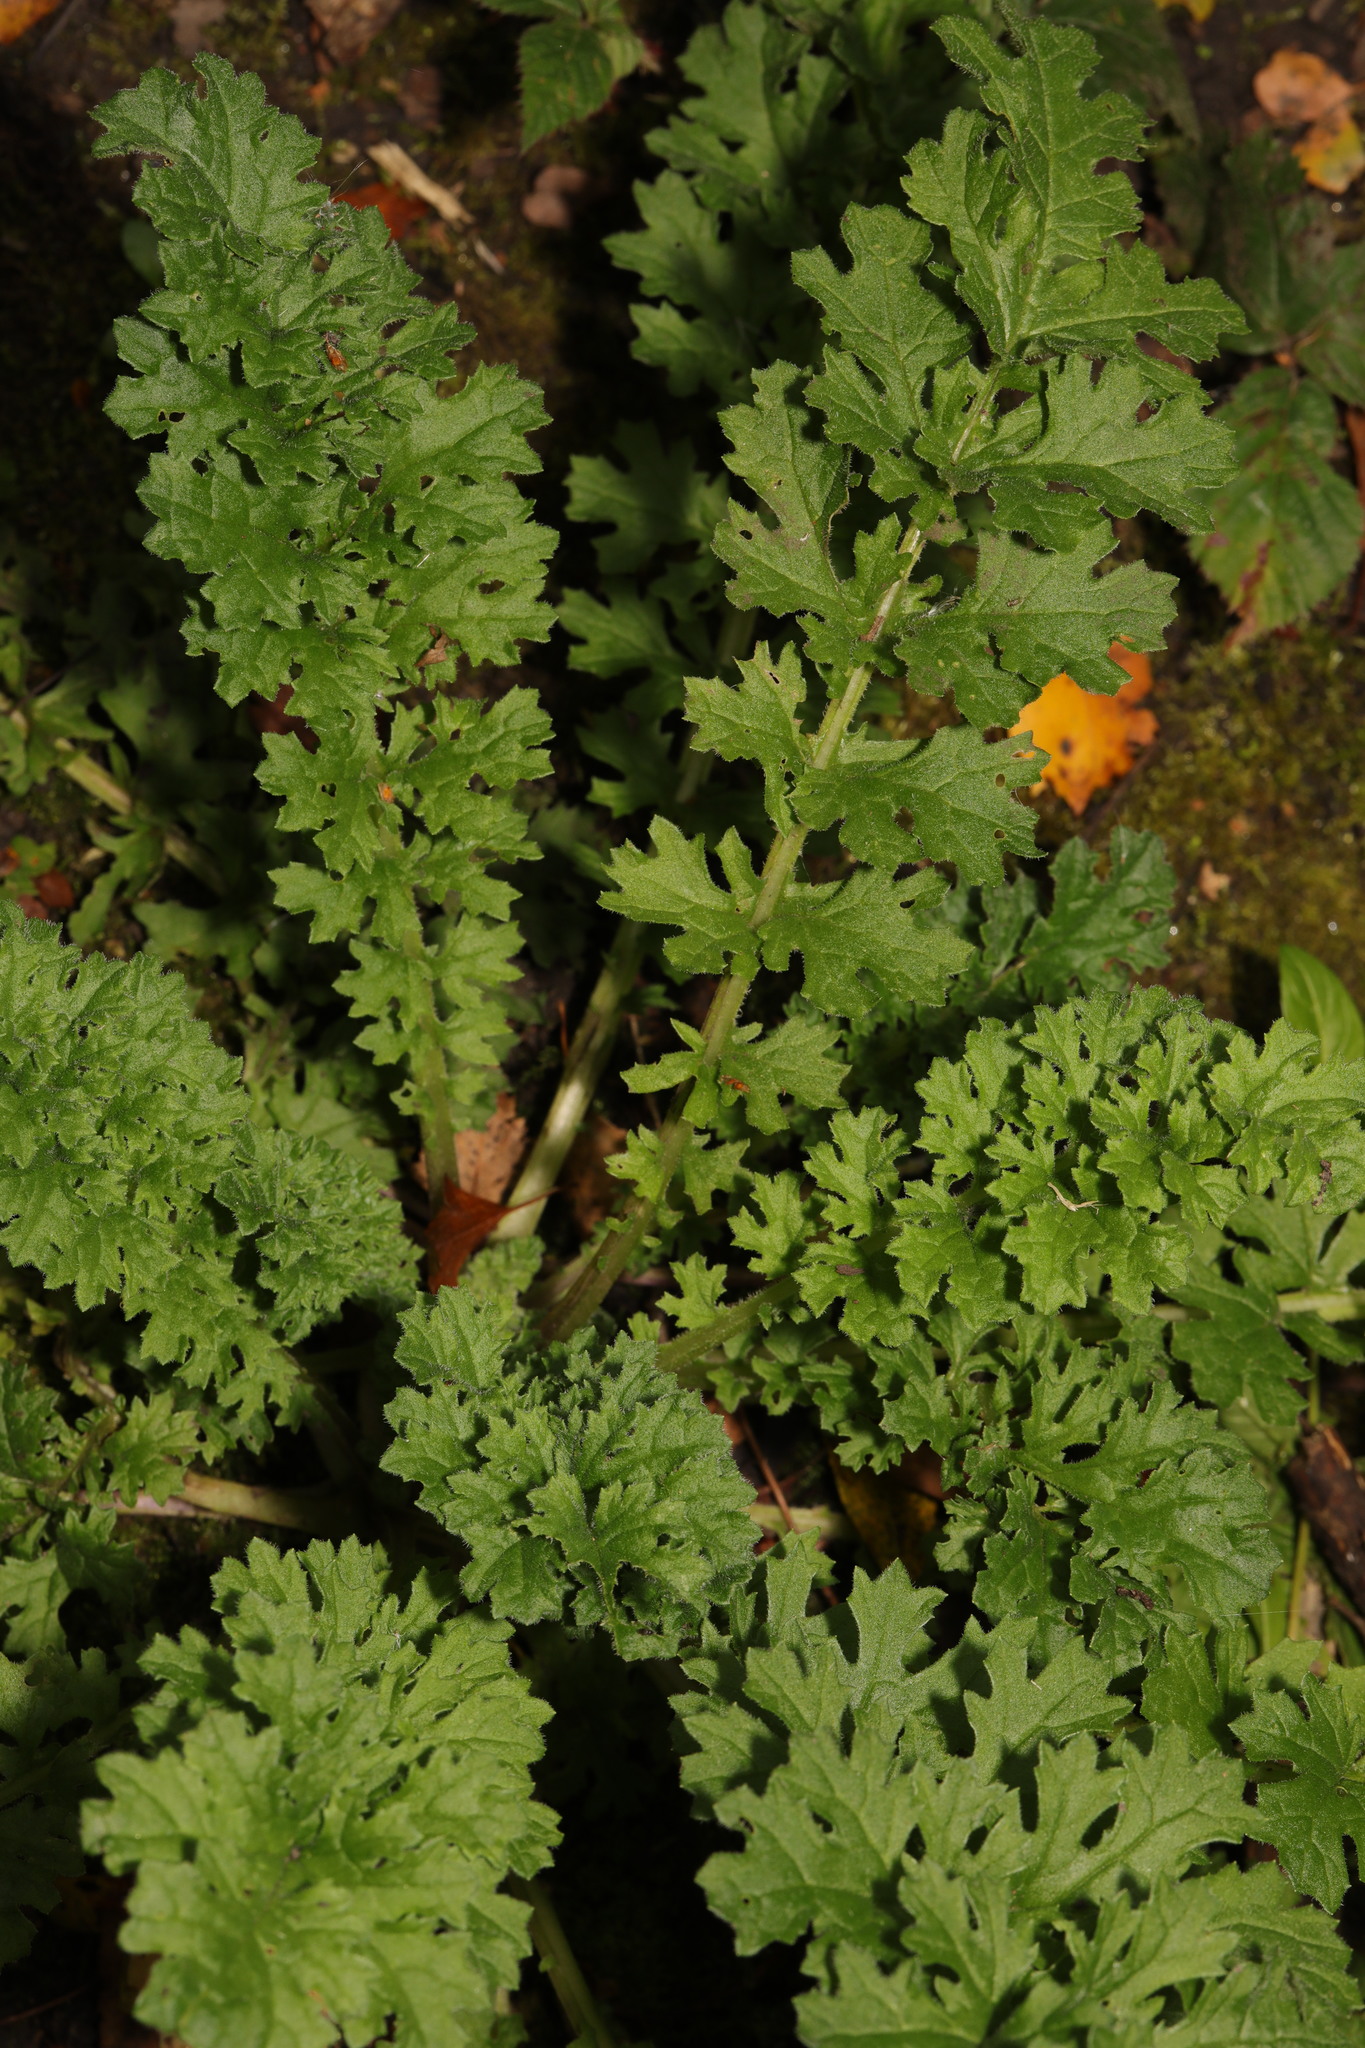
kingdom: Plantae
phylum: Tracheophyta
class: Magnoliopsida
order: Asterales
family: Asteraceae
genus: Jacobaea
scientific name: Jacobaea vulgaris
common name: Stinking willie
